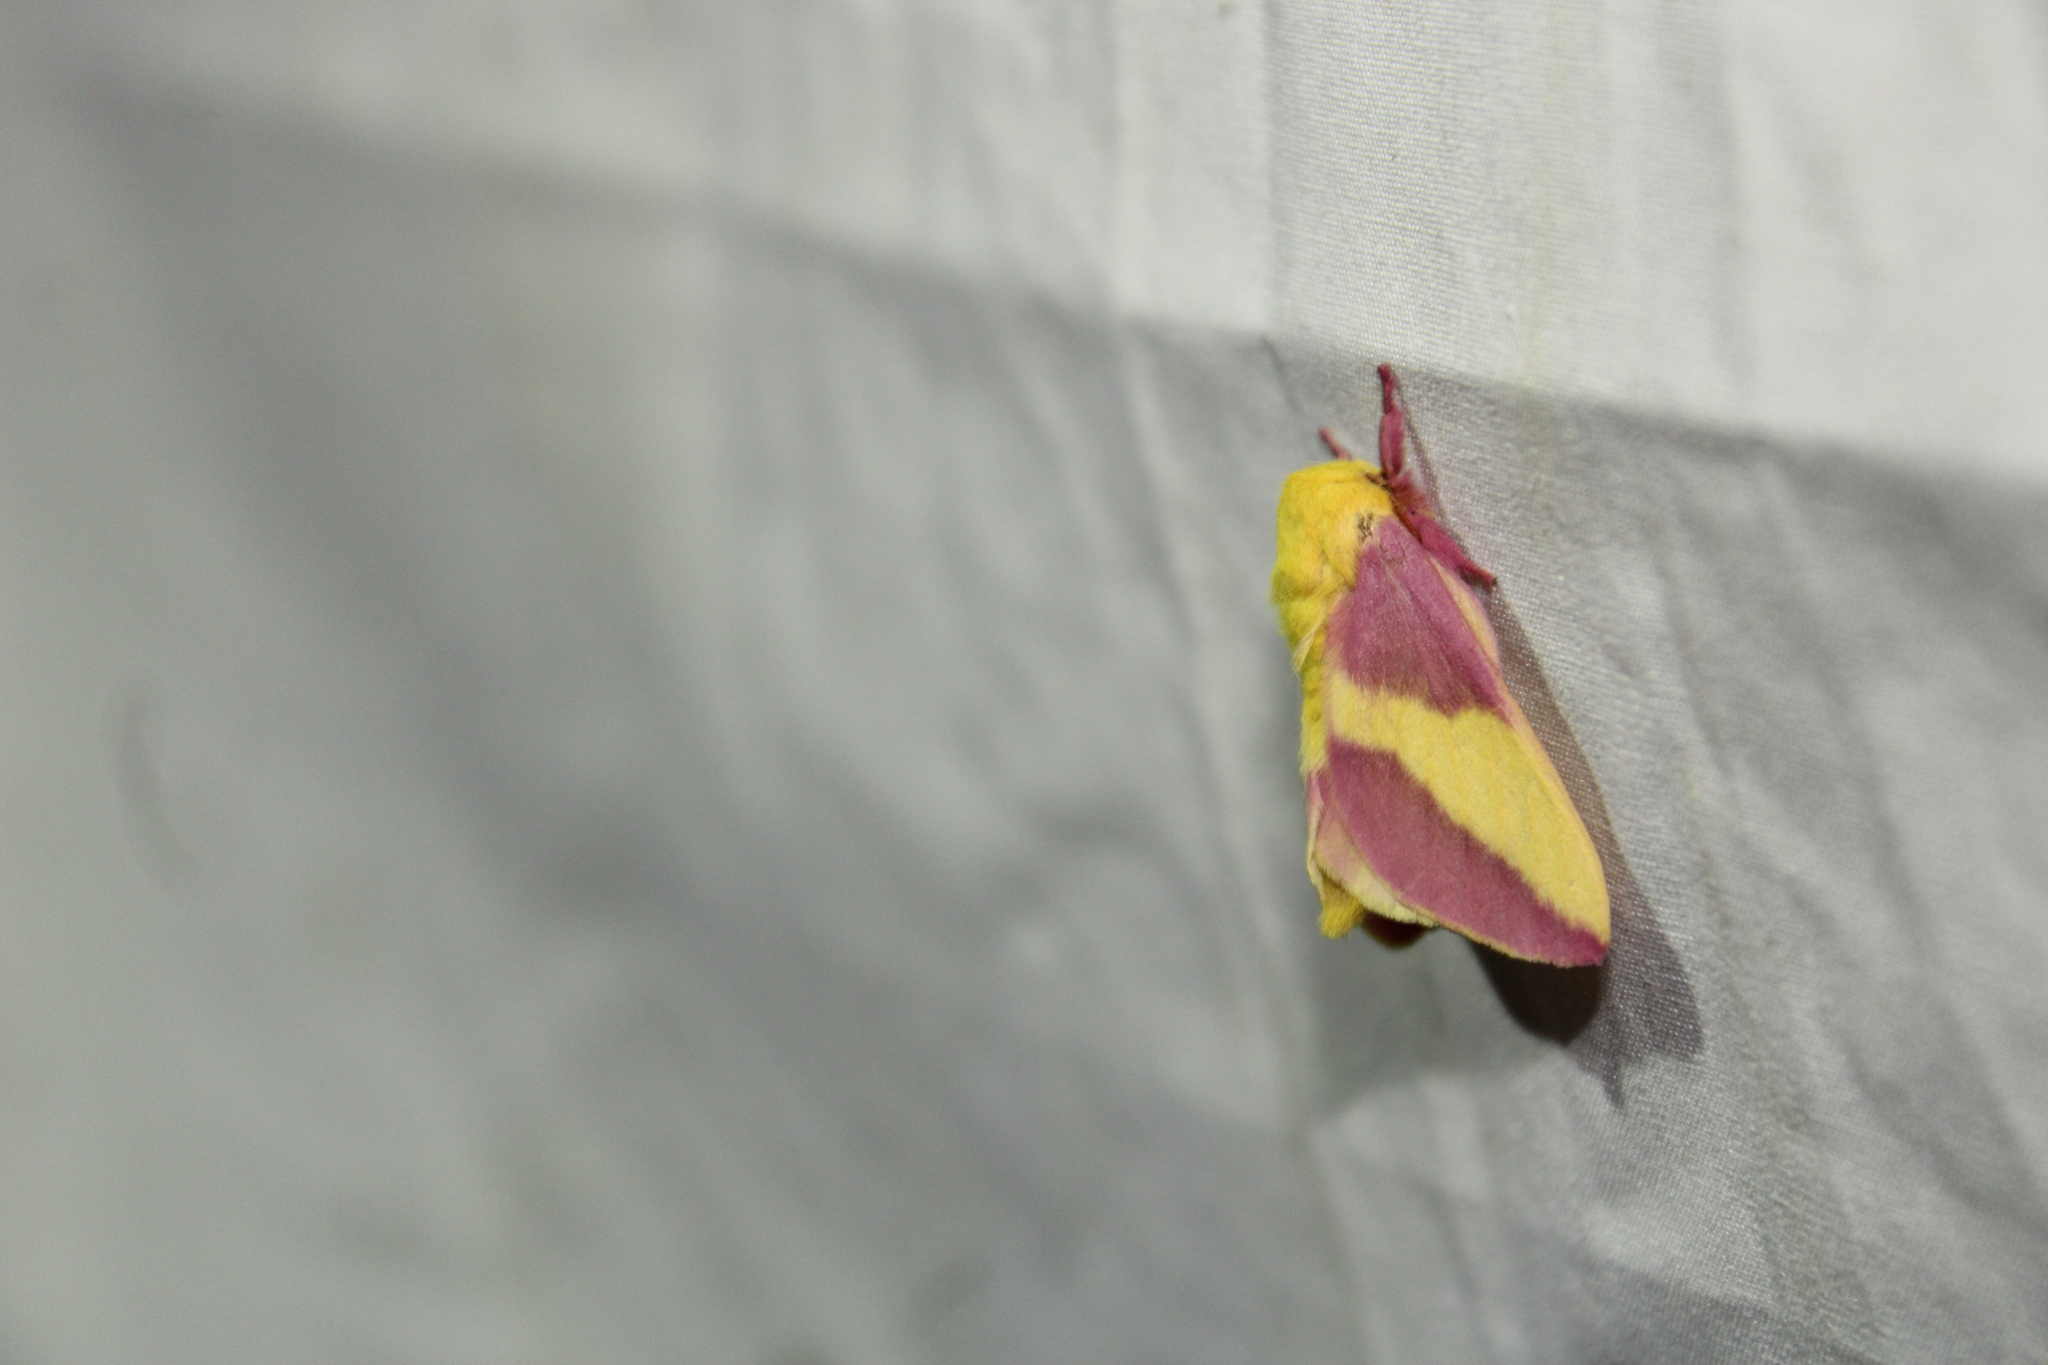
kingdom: Animalia
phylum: Arthropoda
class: Insecta
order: Lepidoptera
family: Saturniidae
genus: Dryocampa
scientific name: Dryocampa rubicunda
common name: Rosy maple moth
